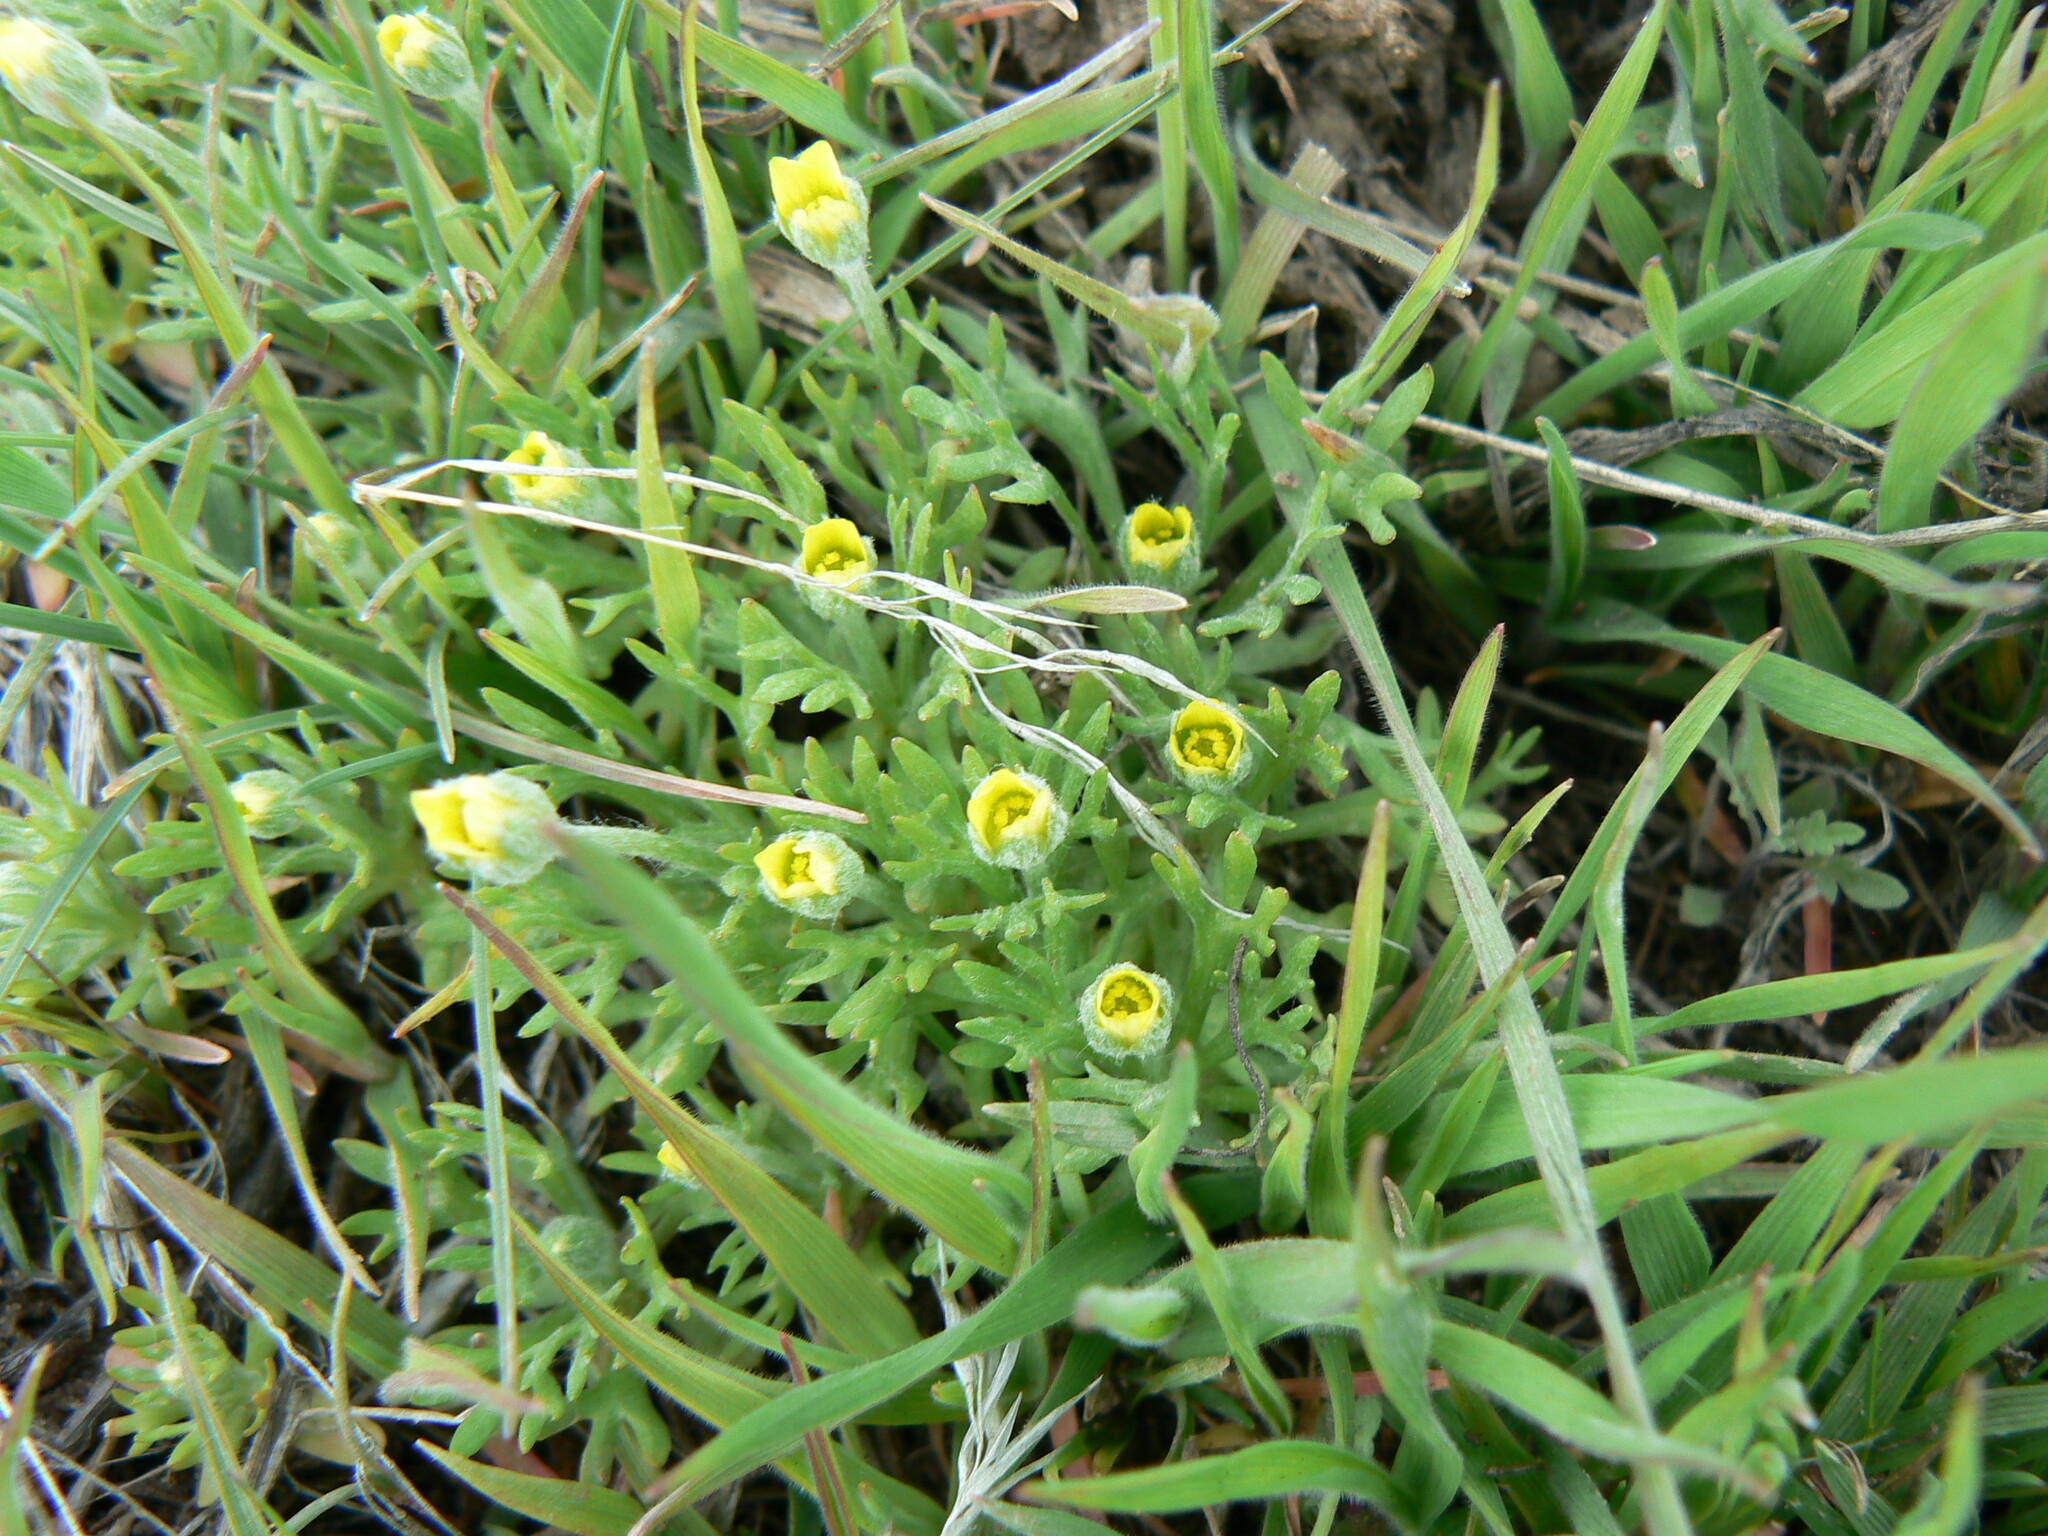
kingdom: Plantae
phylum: Tracheophyta
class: Magnoliopsida
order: Ranunculales
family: Ranunculaceae
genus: Ceratocephala
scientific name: Ceratocephala orthoceras
